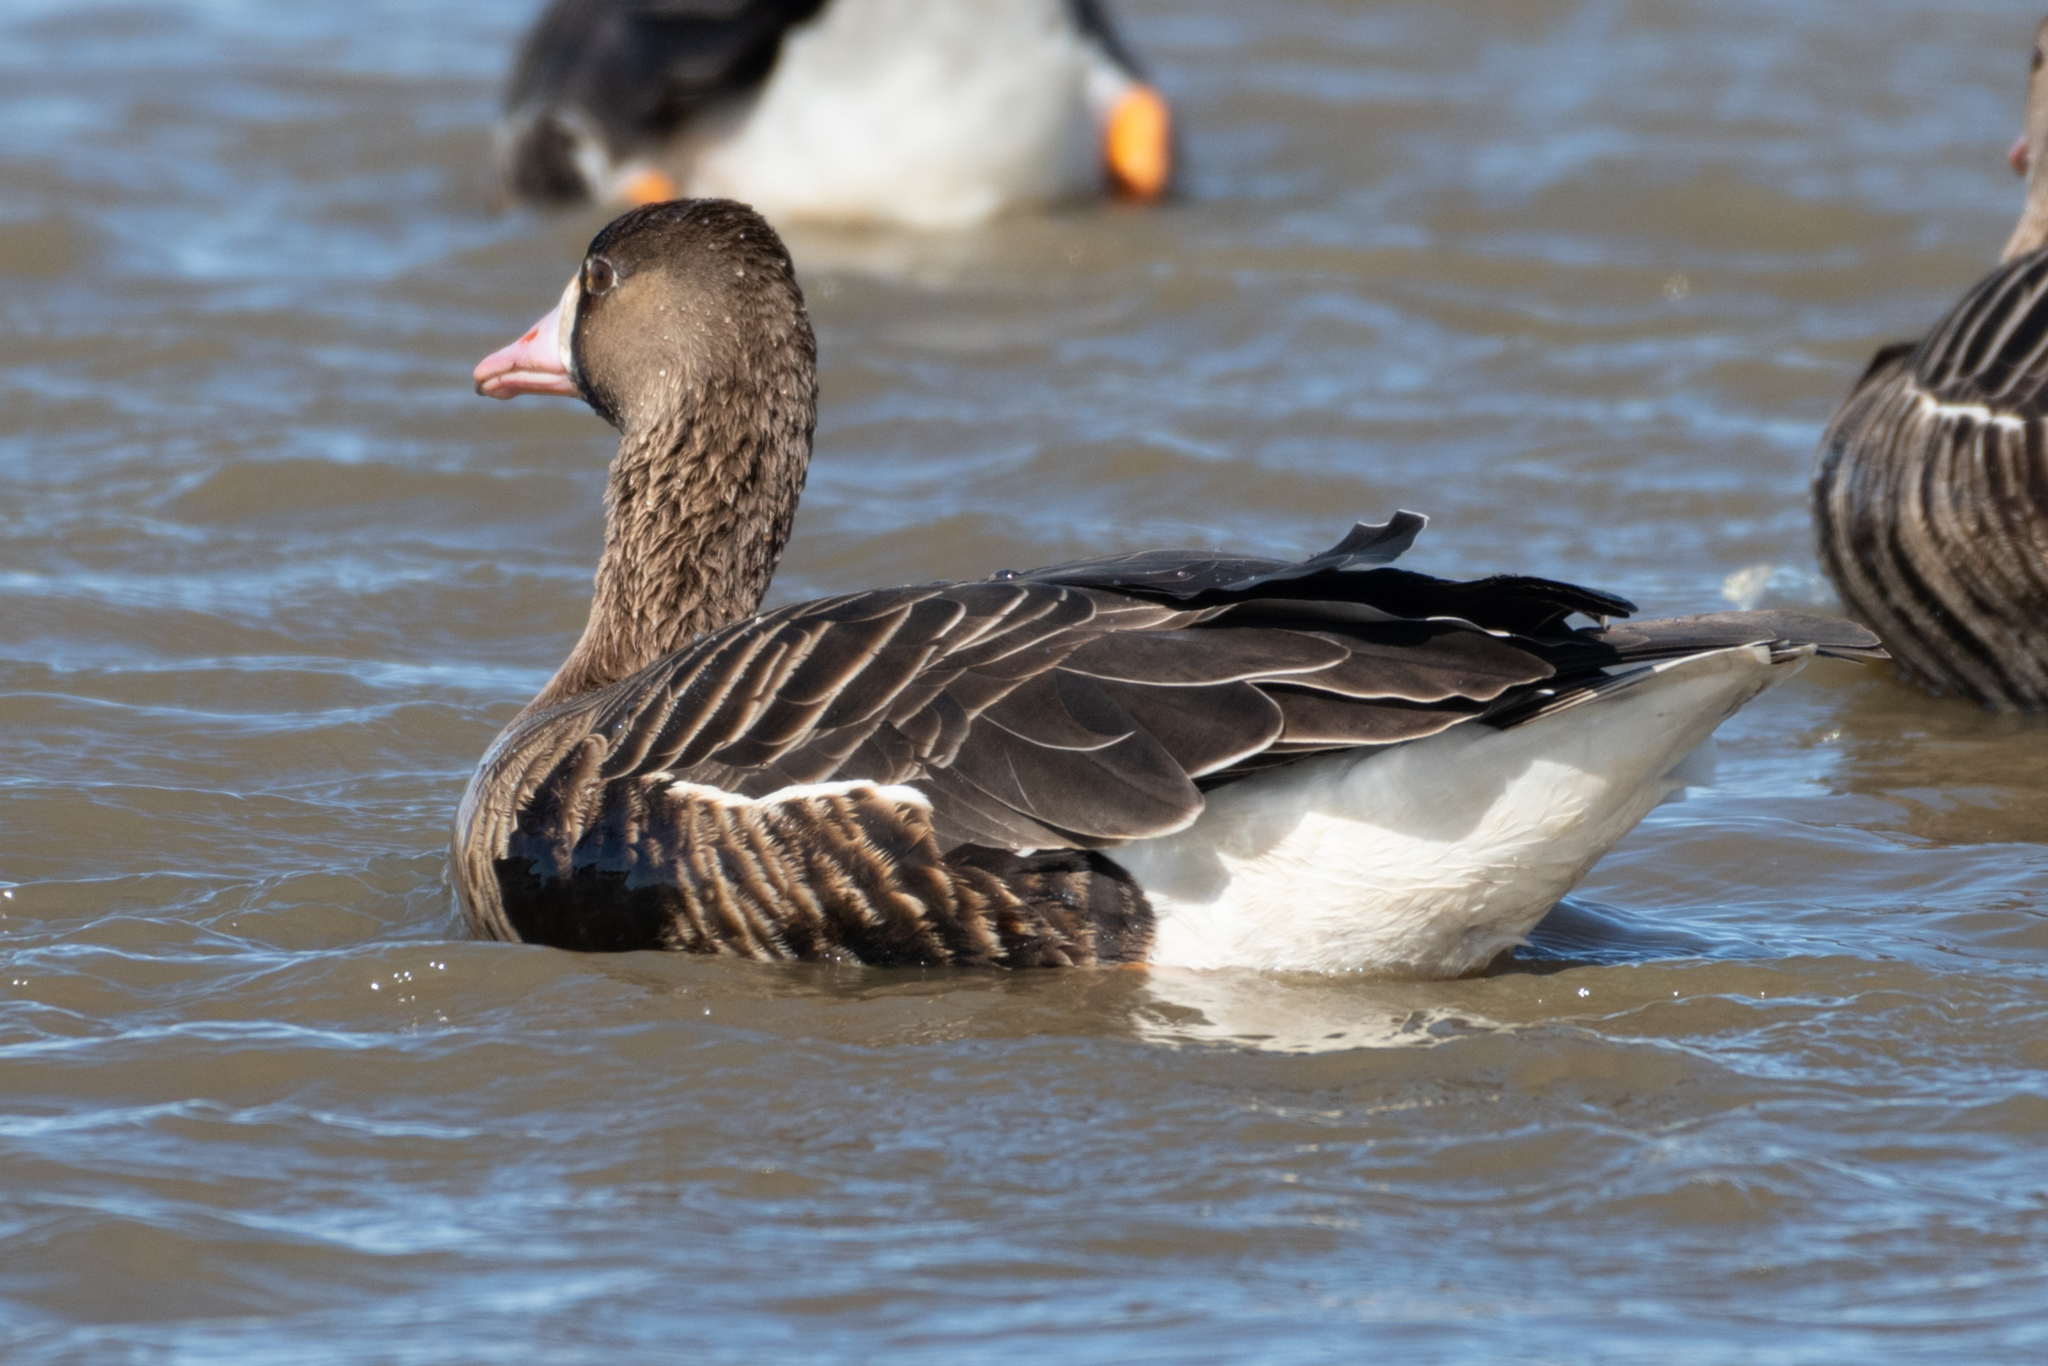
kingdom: Animalia
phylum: Chordata
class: Aves
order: Anseriformes
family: Anatidae
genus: Anser
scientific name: Anser albifrons
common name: Greater white-fronted goose
